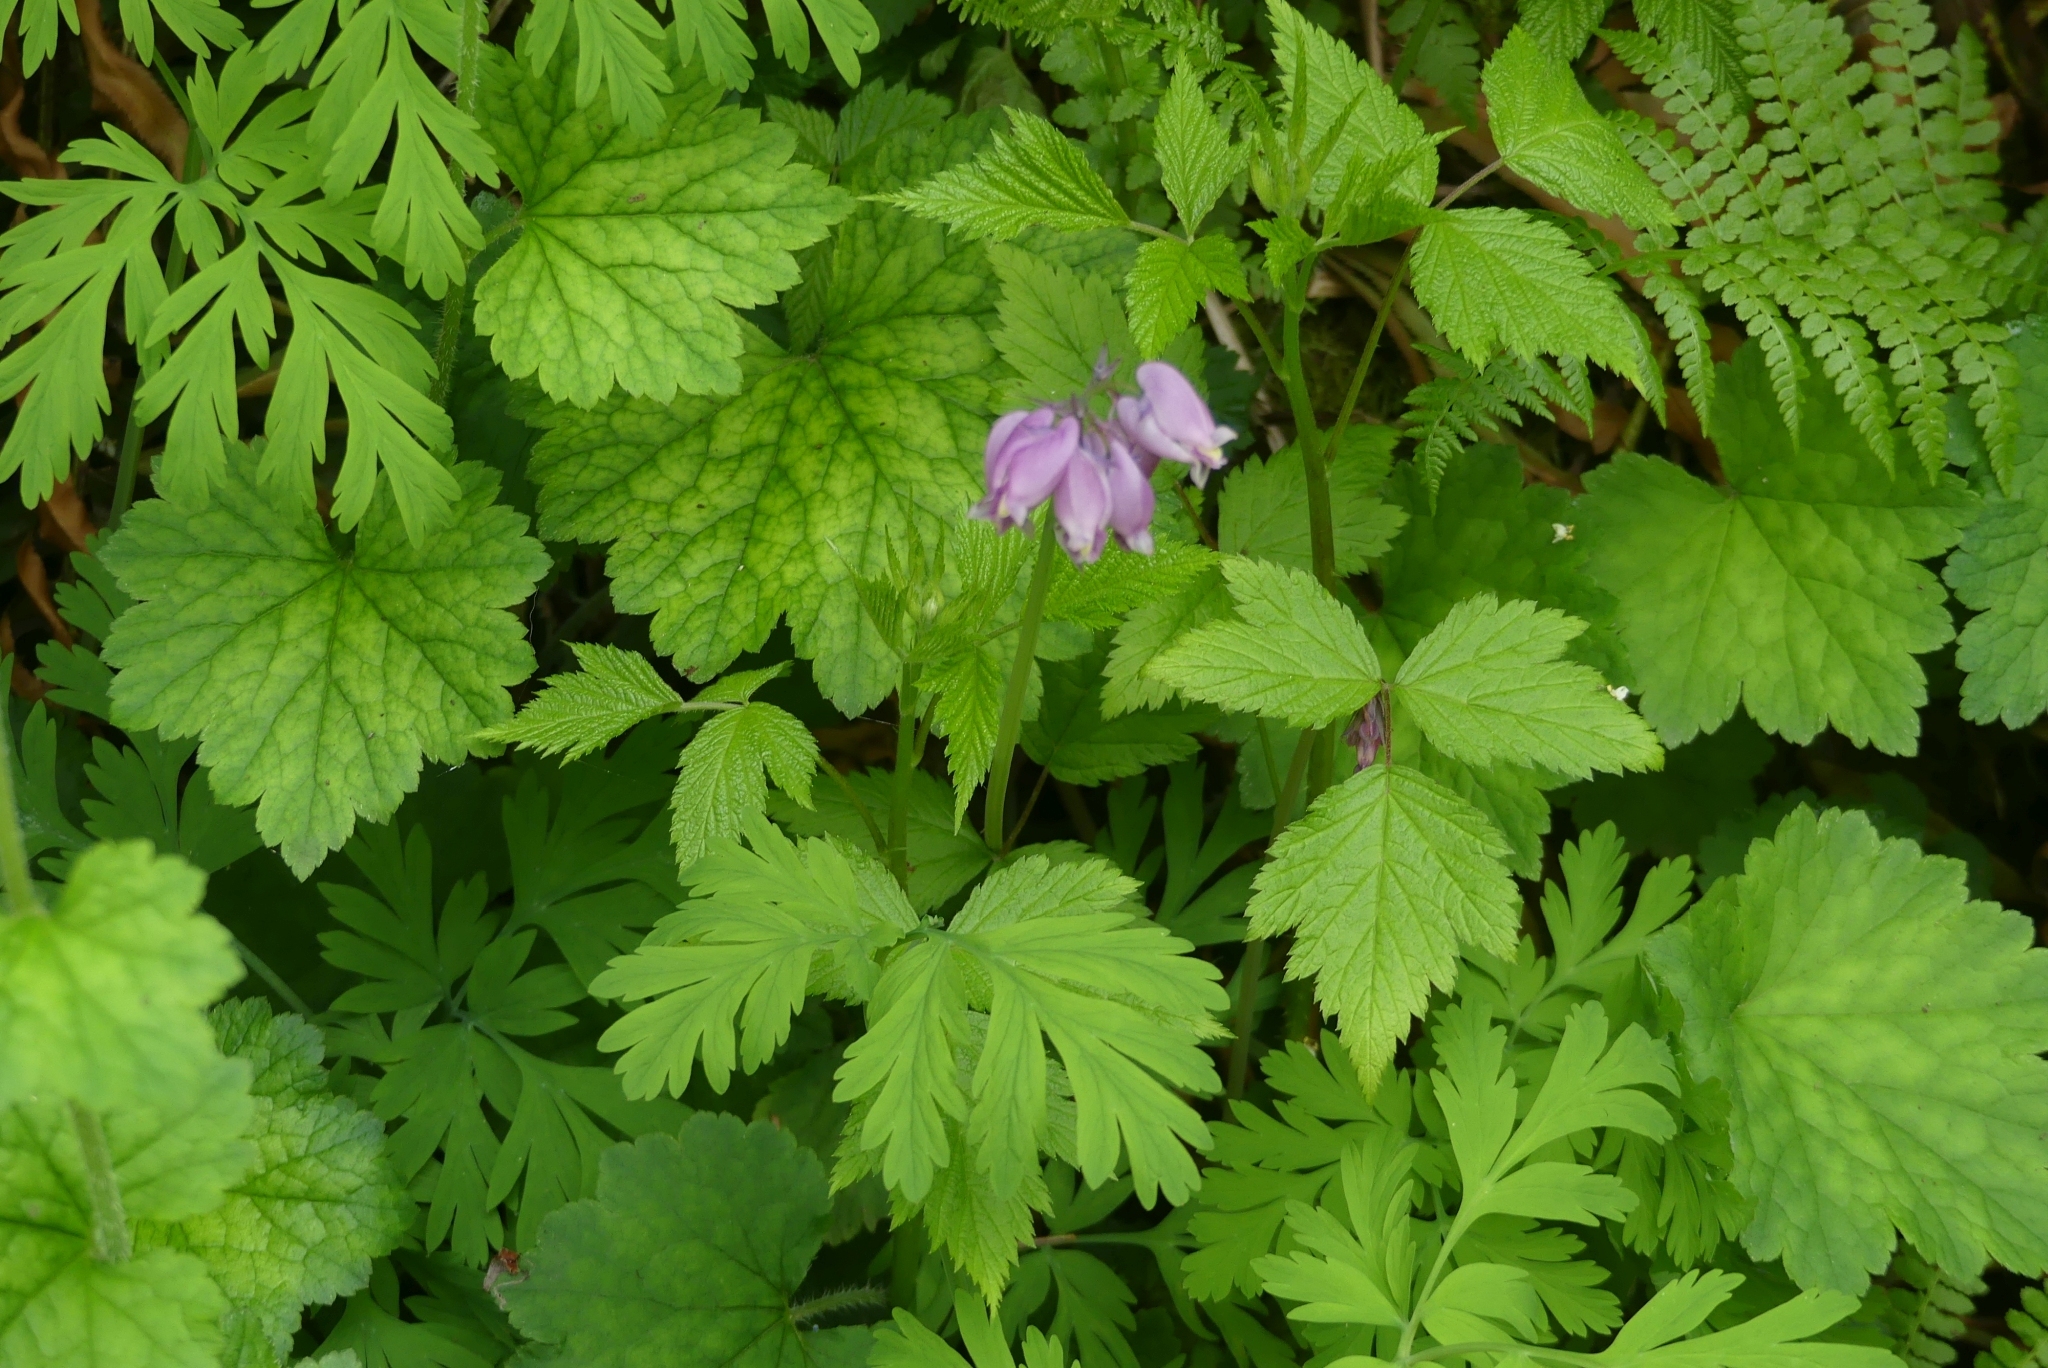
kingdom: Plantae
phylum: Tracheophyta
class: Magnoliopsida
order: Ranunculales
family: Papaveraceae
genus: Dicentra
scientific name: Dicentra formosa
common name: Bleeding-heart
